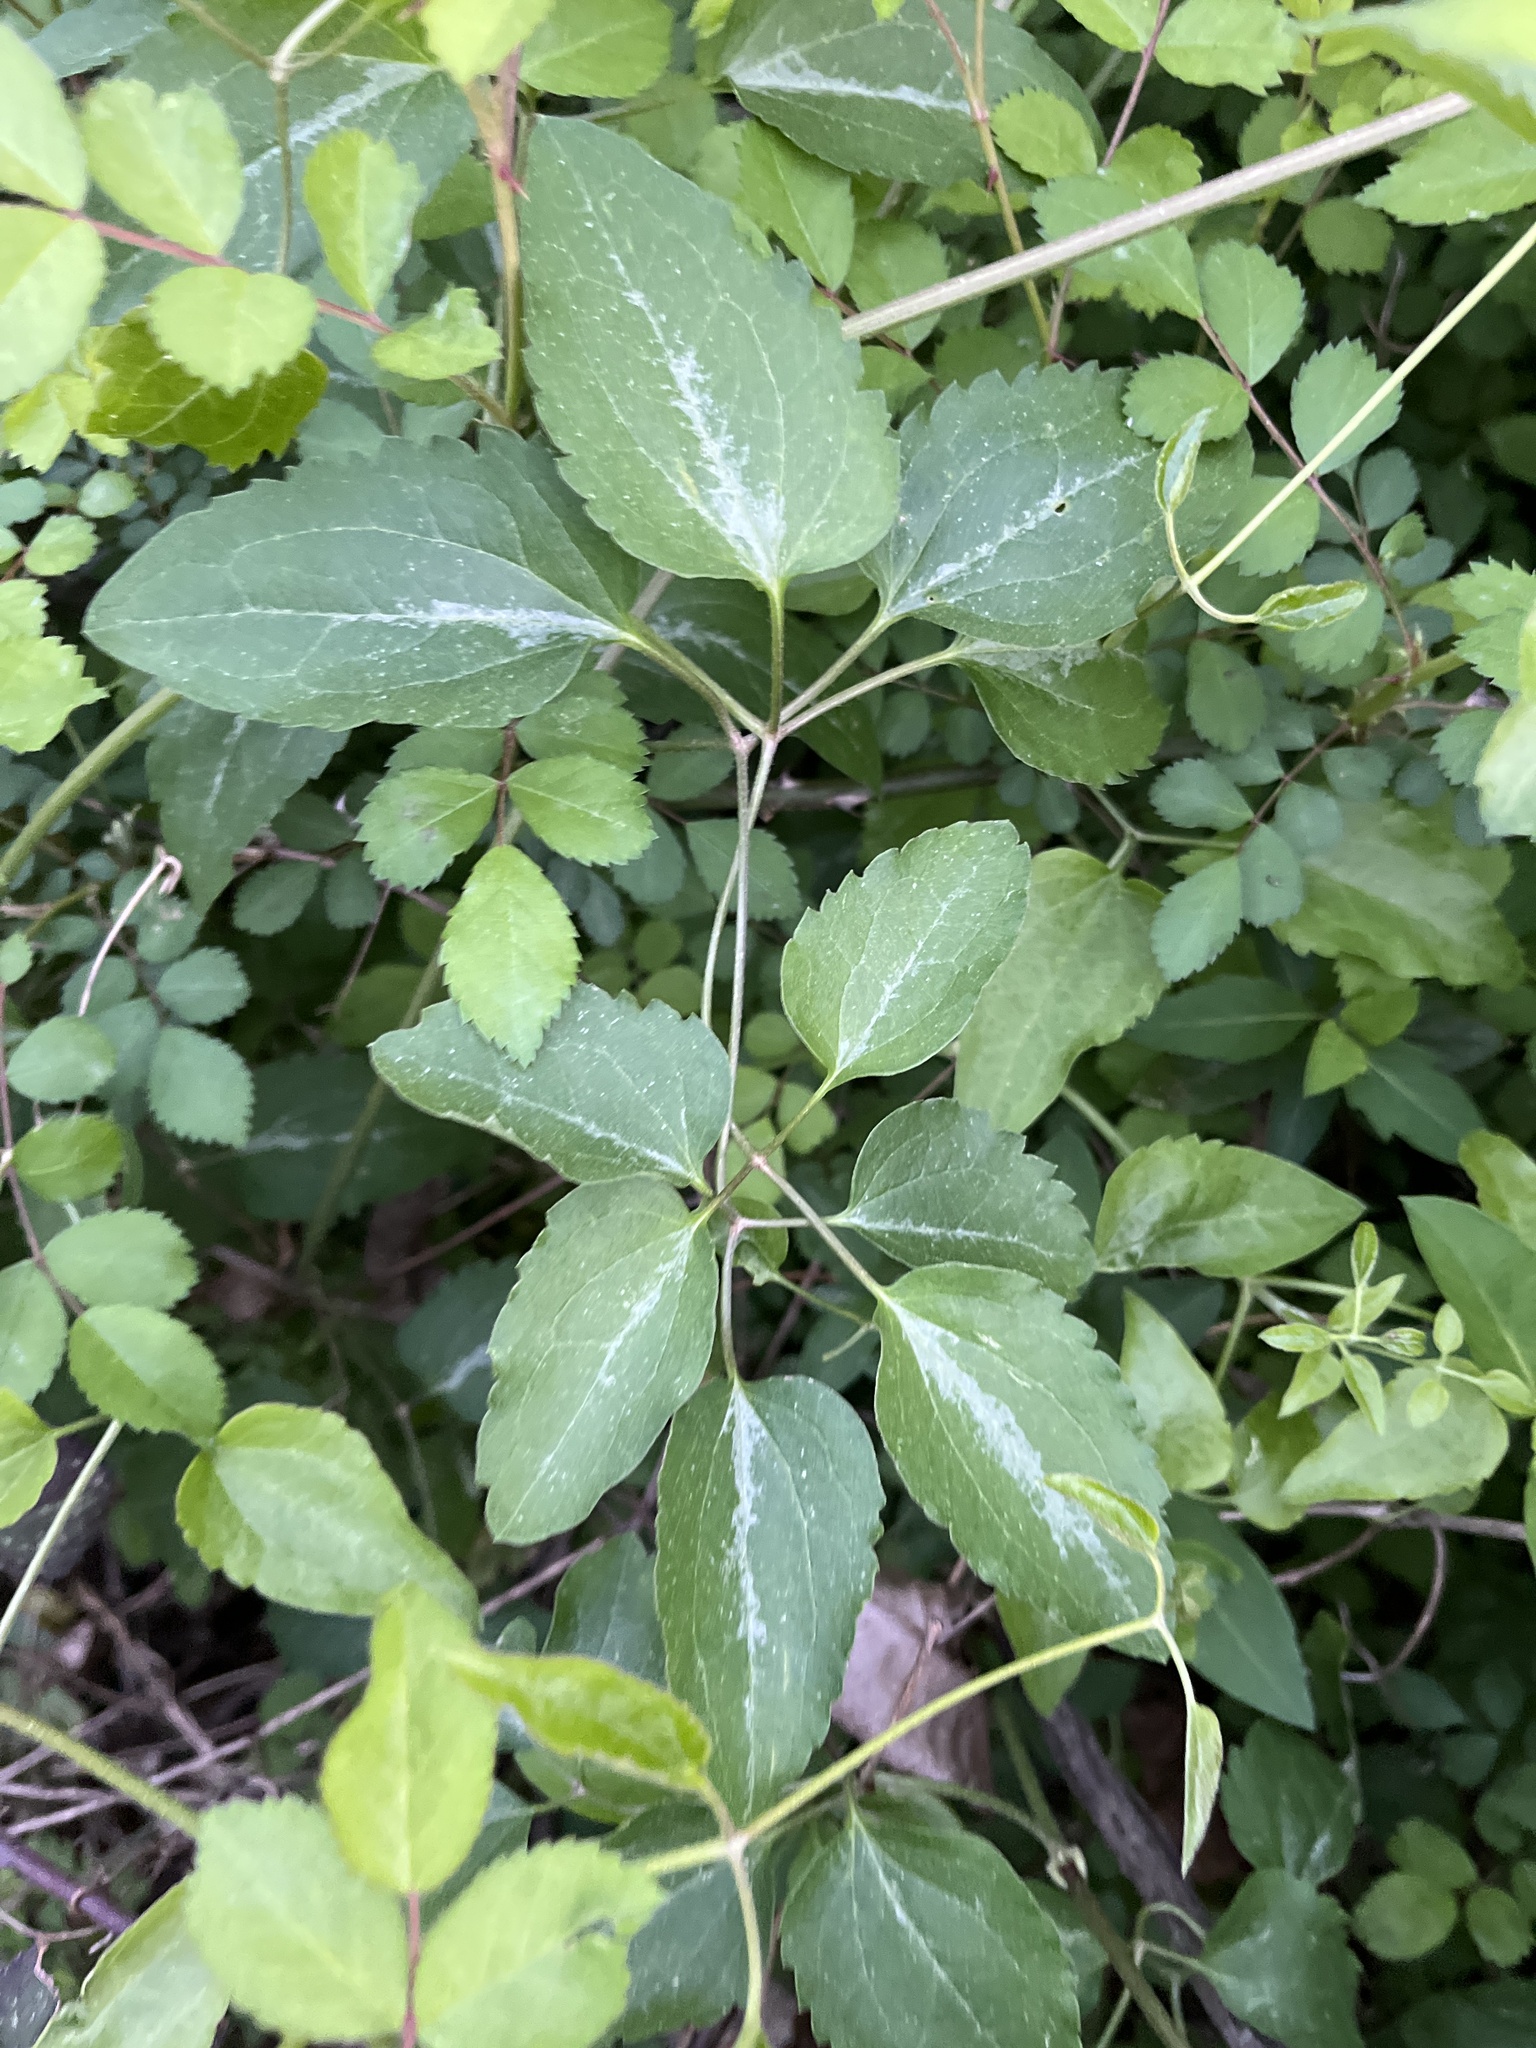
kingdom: Plantae
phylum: Tracheophyta
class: Magnoliopsida
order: Ranunculales
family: Ranunculaceae
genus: Clematis
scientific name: Clematis terniflora
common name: Sweet autumn clematis
